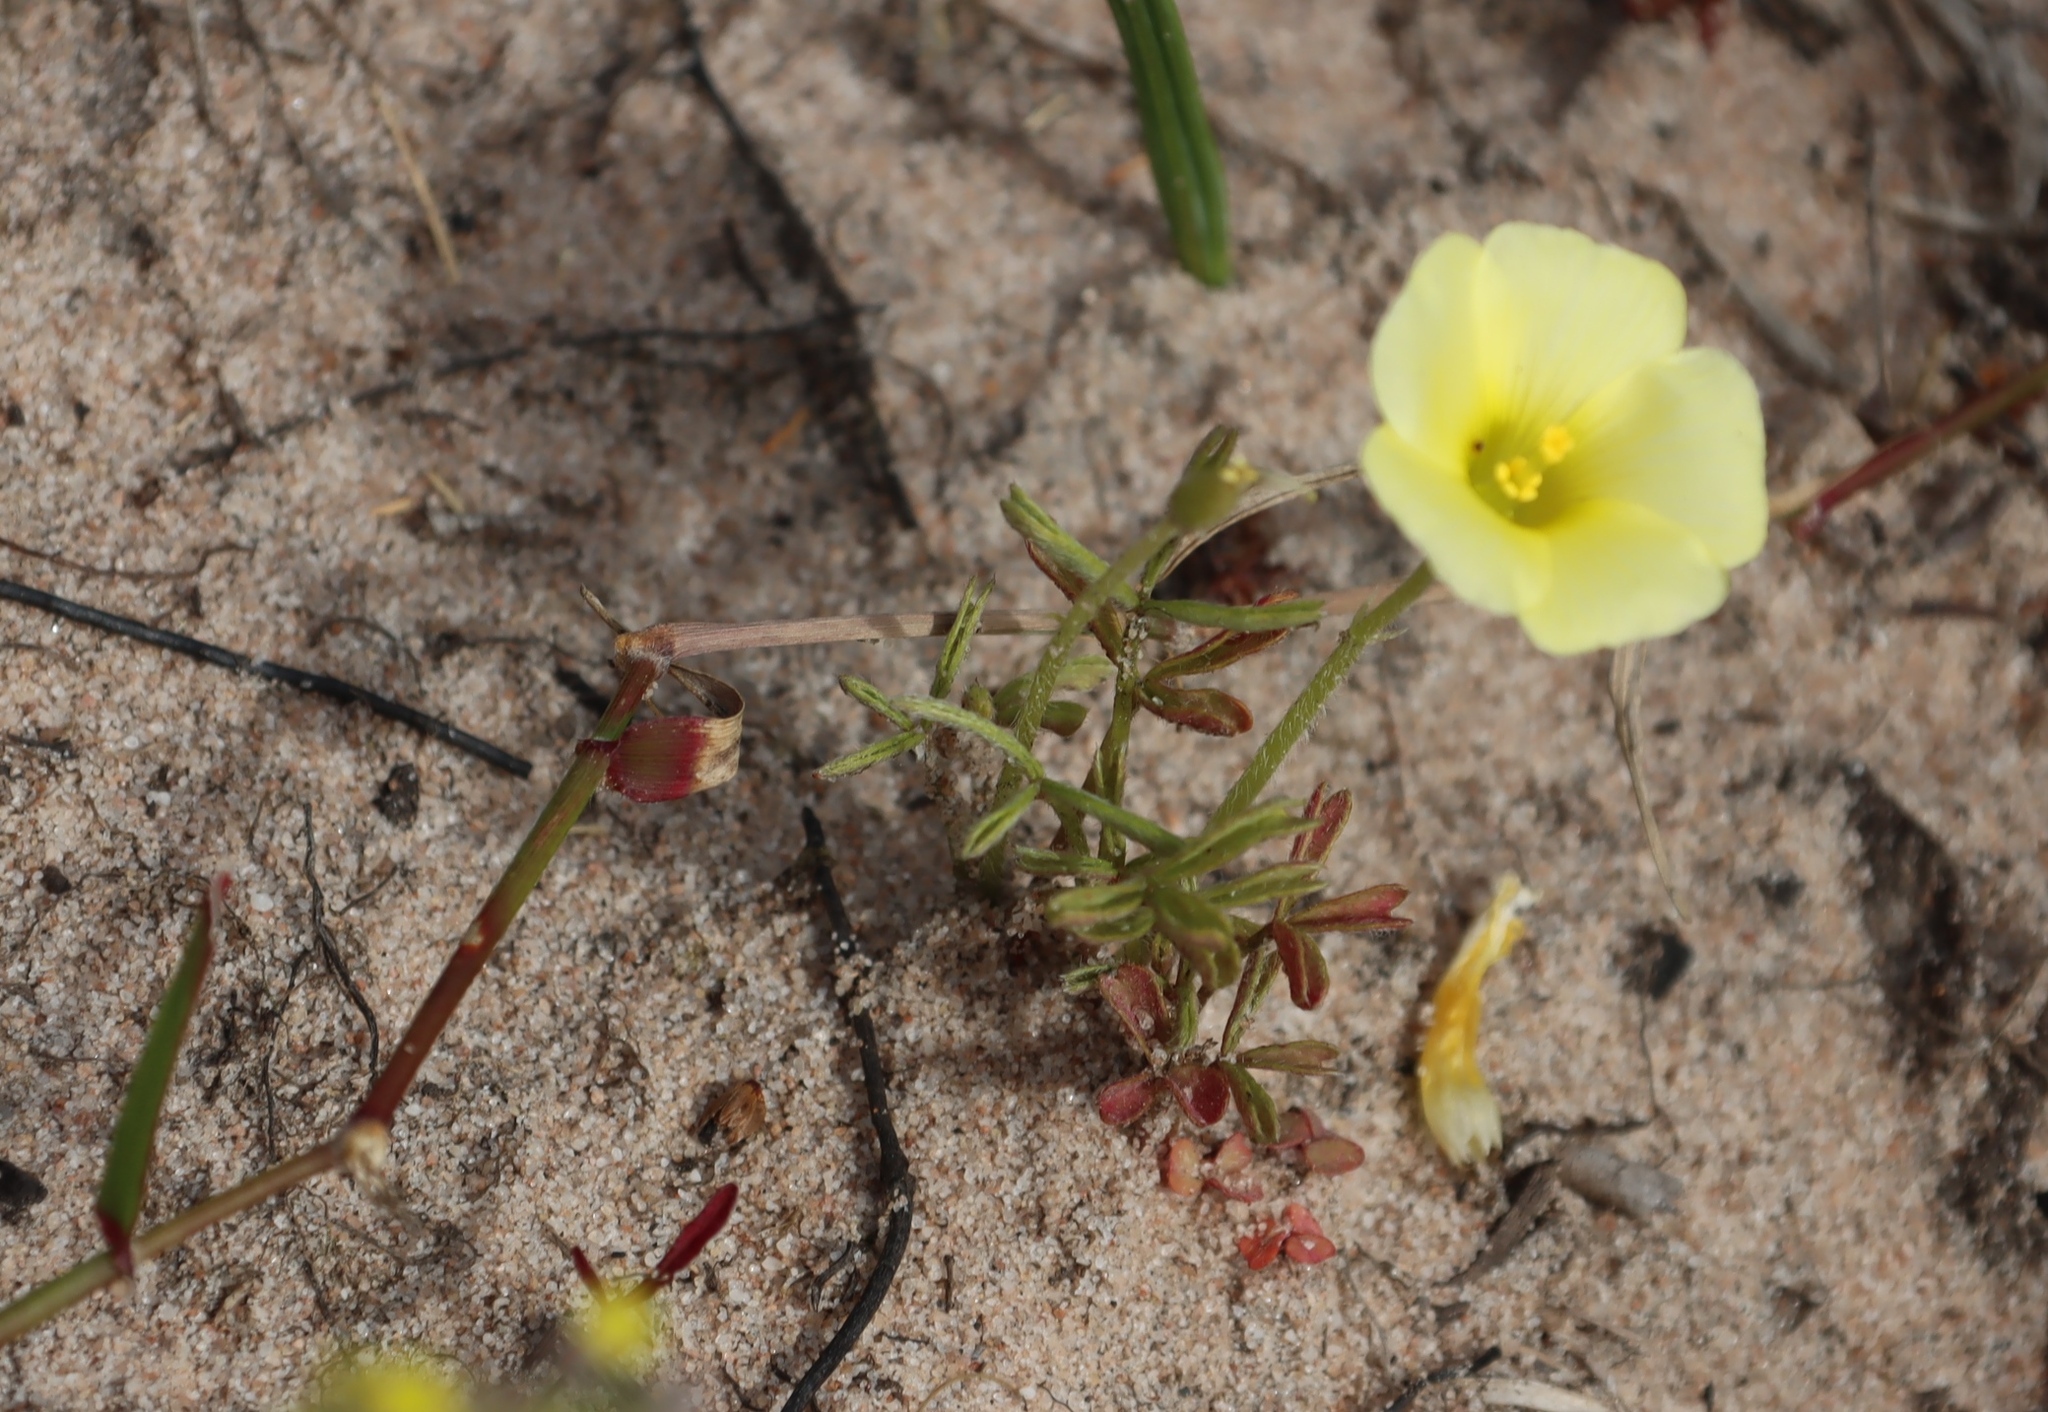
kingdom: Plantae
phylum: Tracheophyta
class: Magnoliopsida
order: Oxalidales
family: Oxalidaceae
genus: Oxalis
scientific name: Oxalis obtusa
